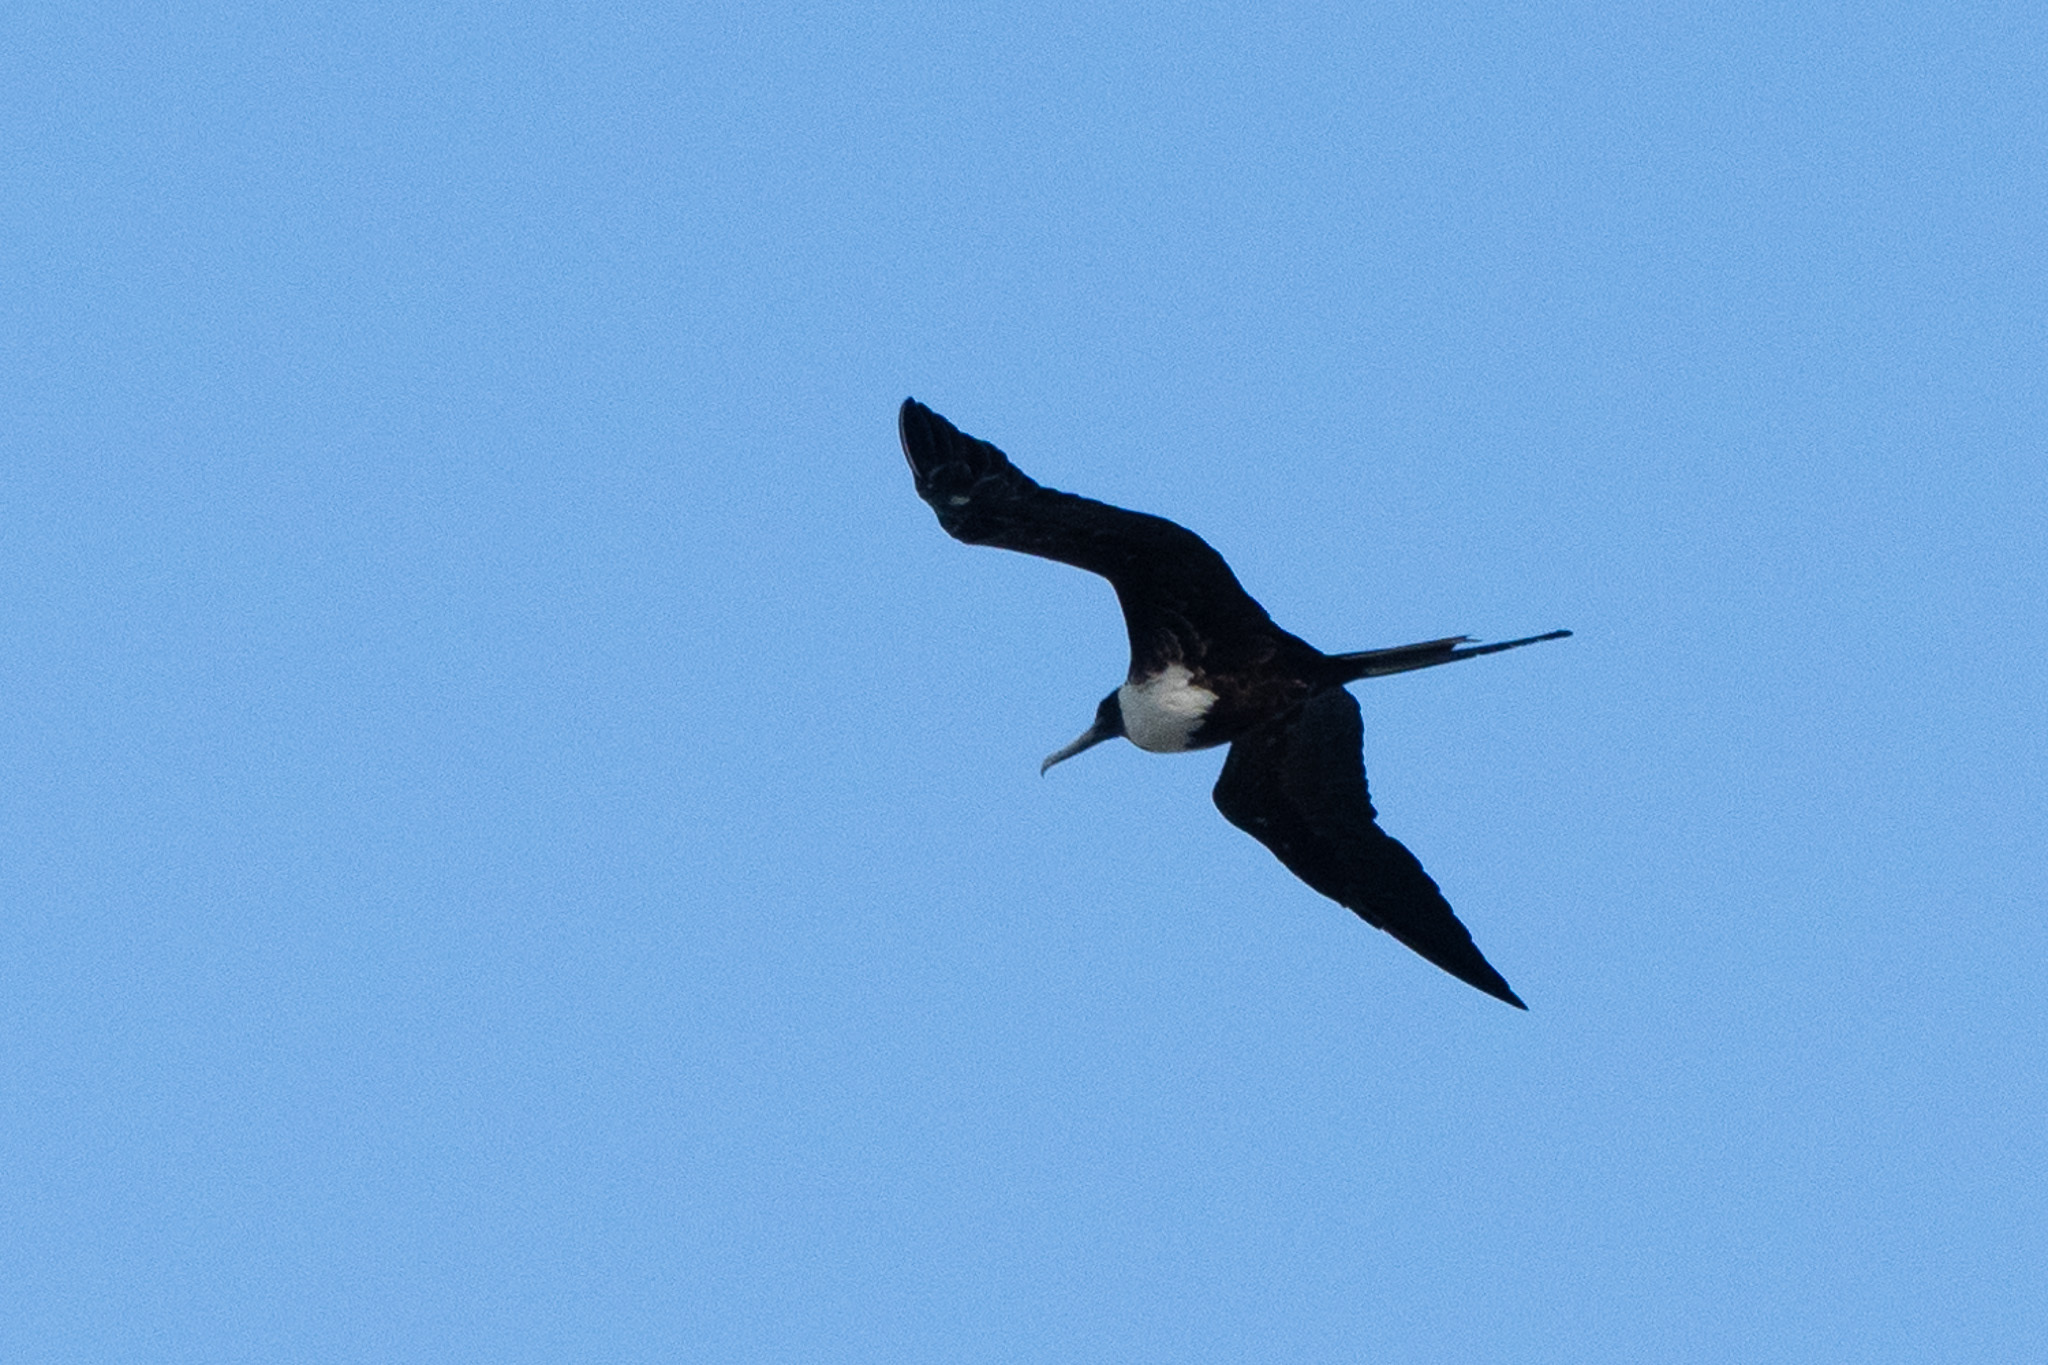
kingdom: Animalia
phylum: Chordata
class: Aves
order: Suliformes
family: Fregatidae
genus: Fregata
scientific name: Fregata magnificens
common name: Magnificent frigatebird
